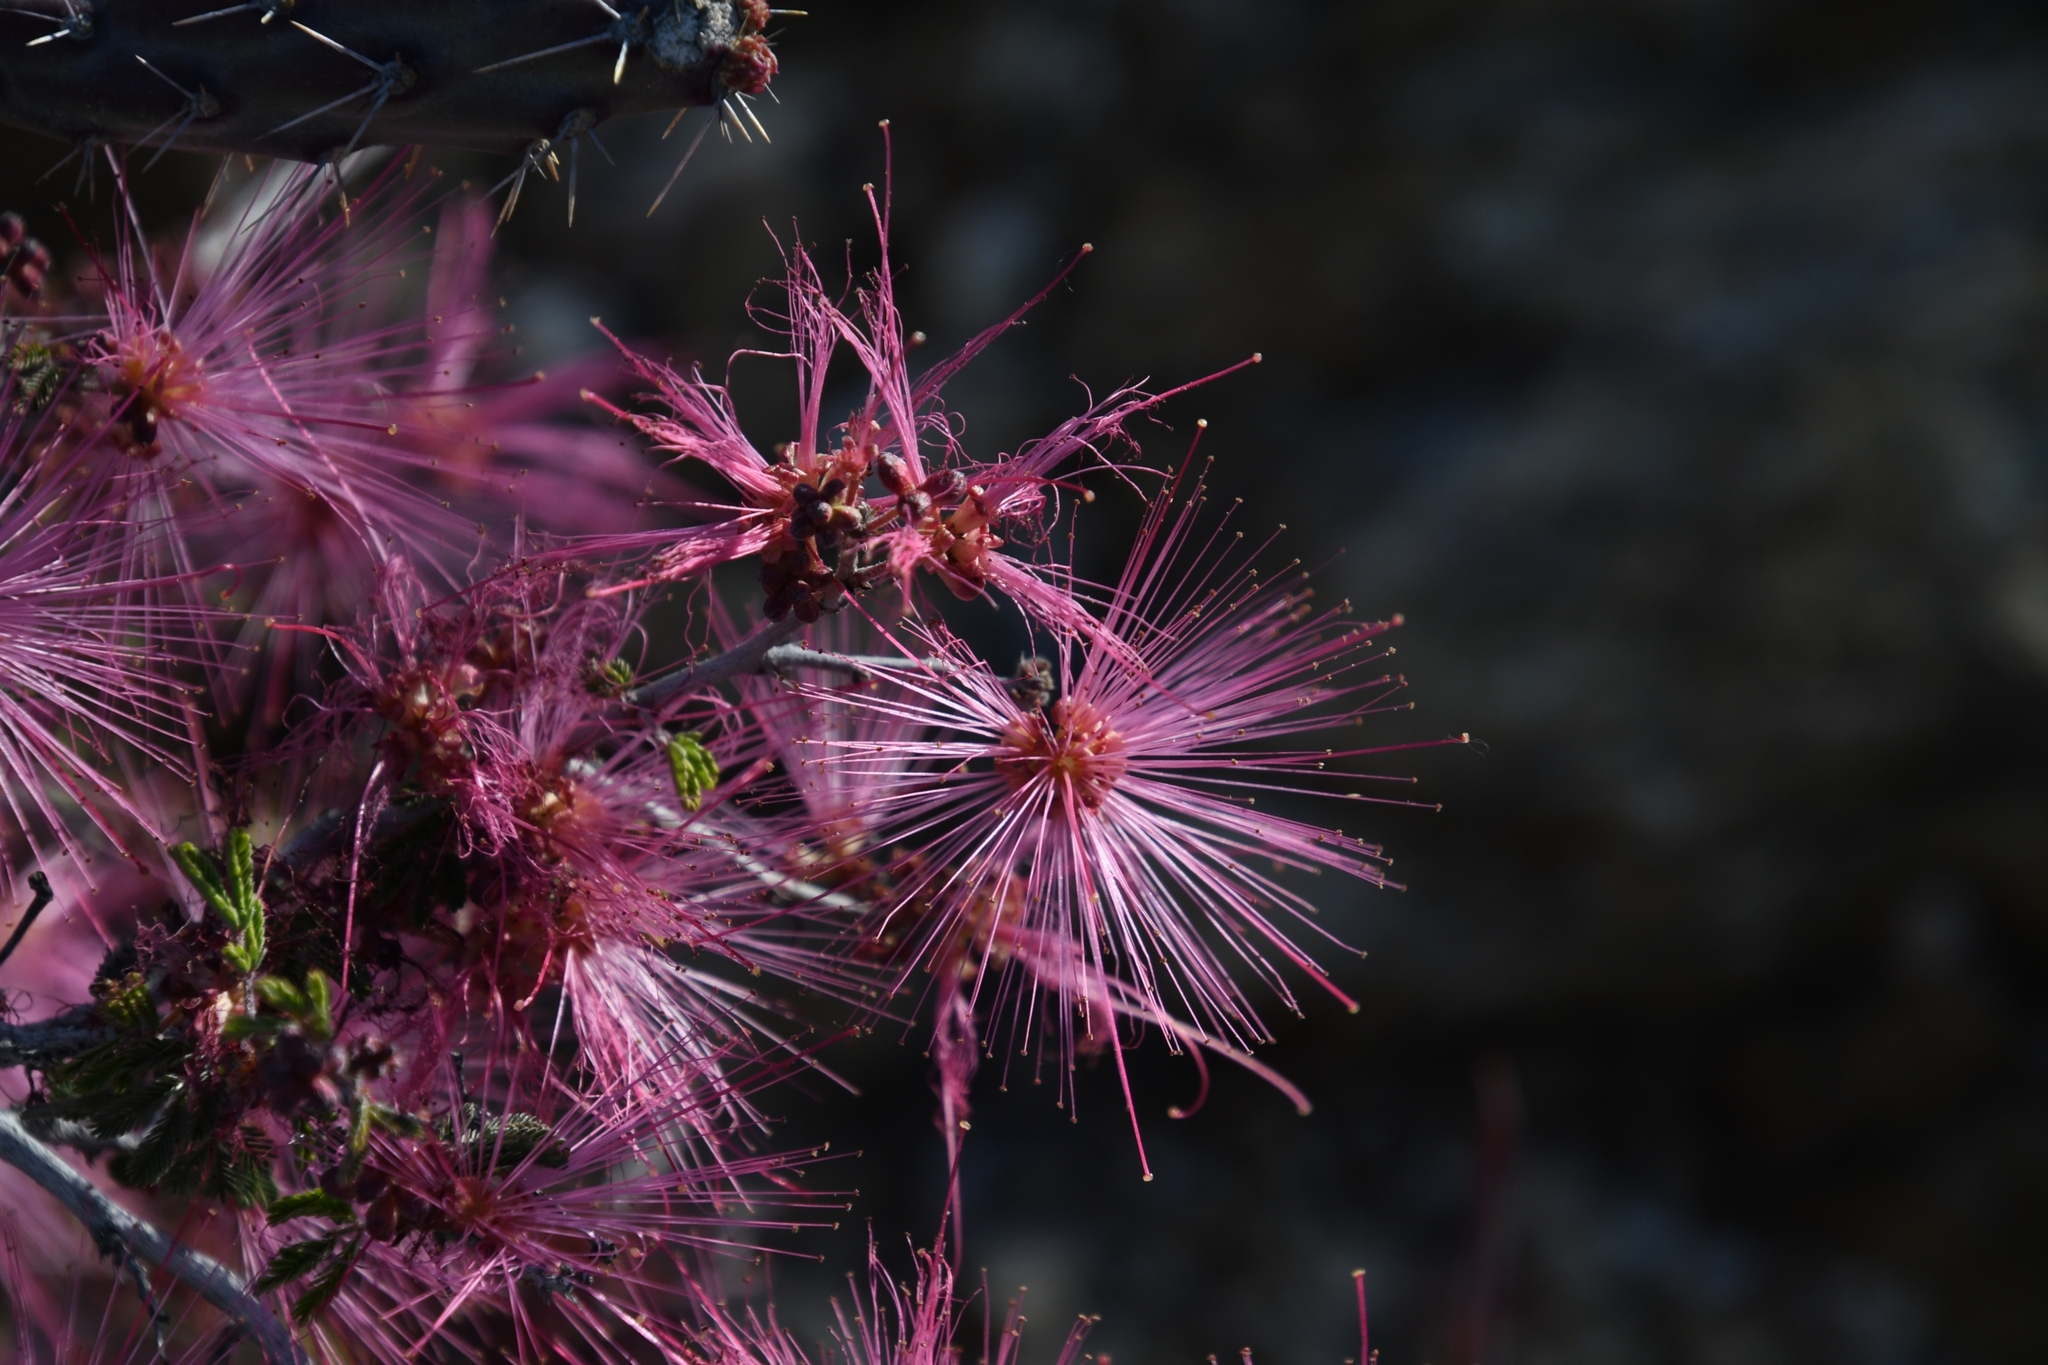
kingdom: Plantae
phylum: Tracheophyta
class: Magnoliopsida
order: Fabales
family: Fabaceae
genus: Calliandra
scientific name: Calliandra eriophylla
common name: Fairy-duster
